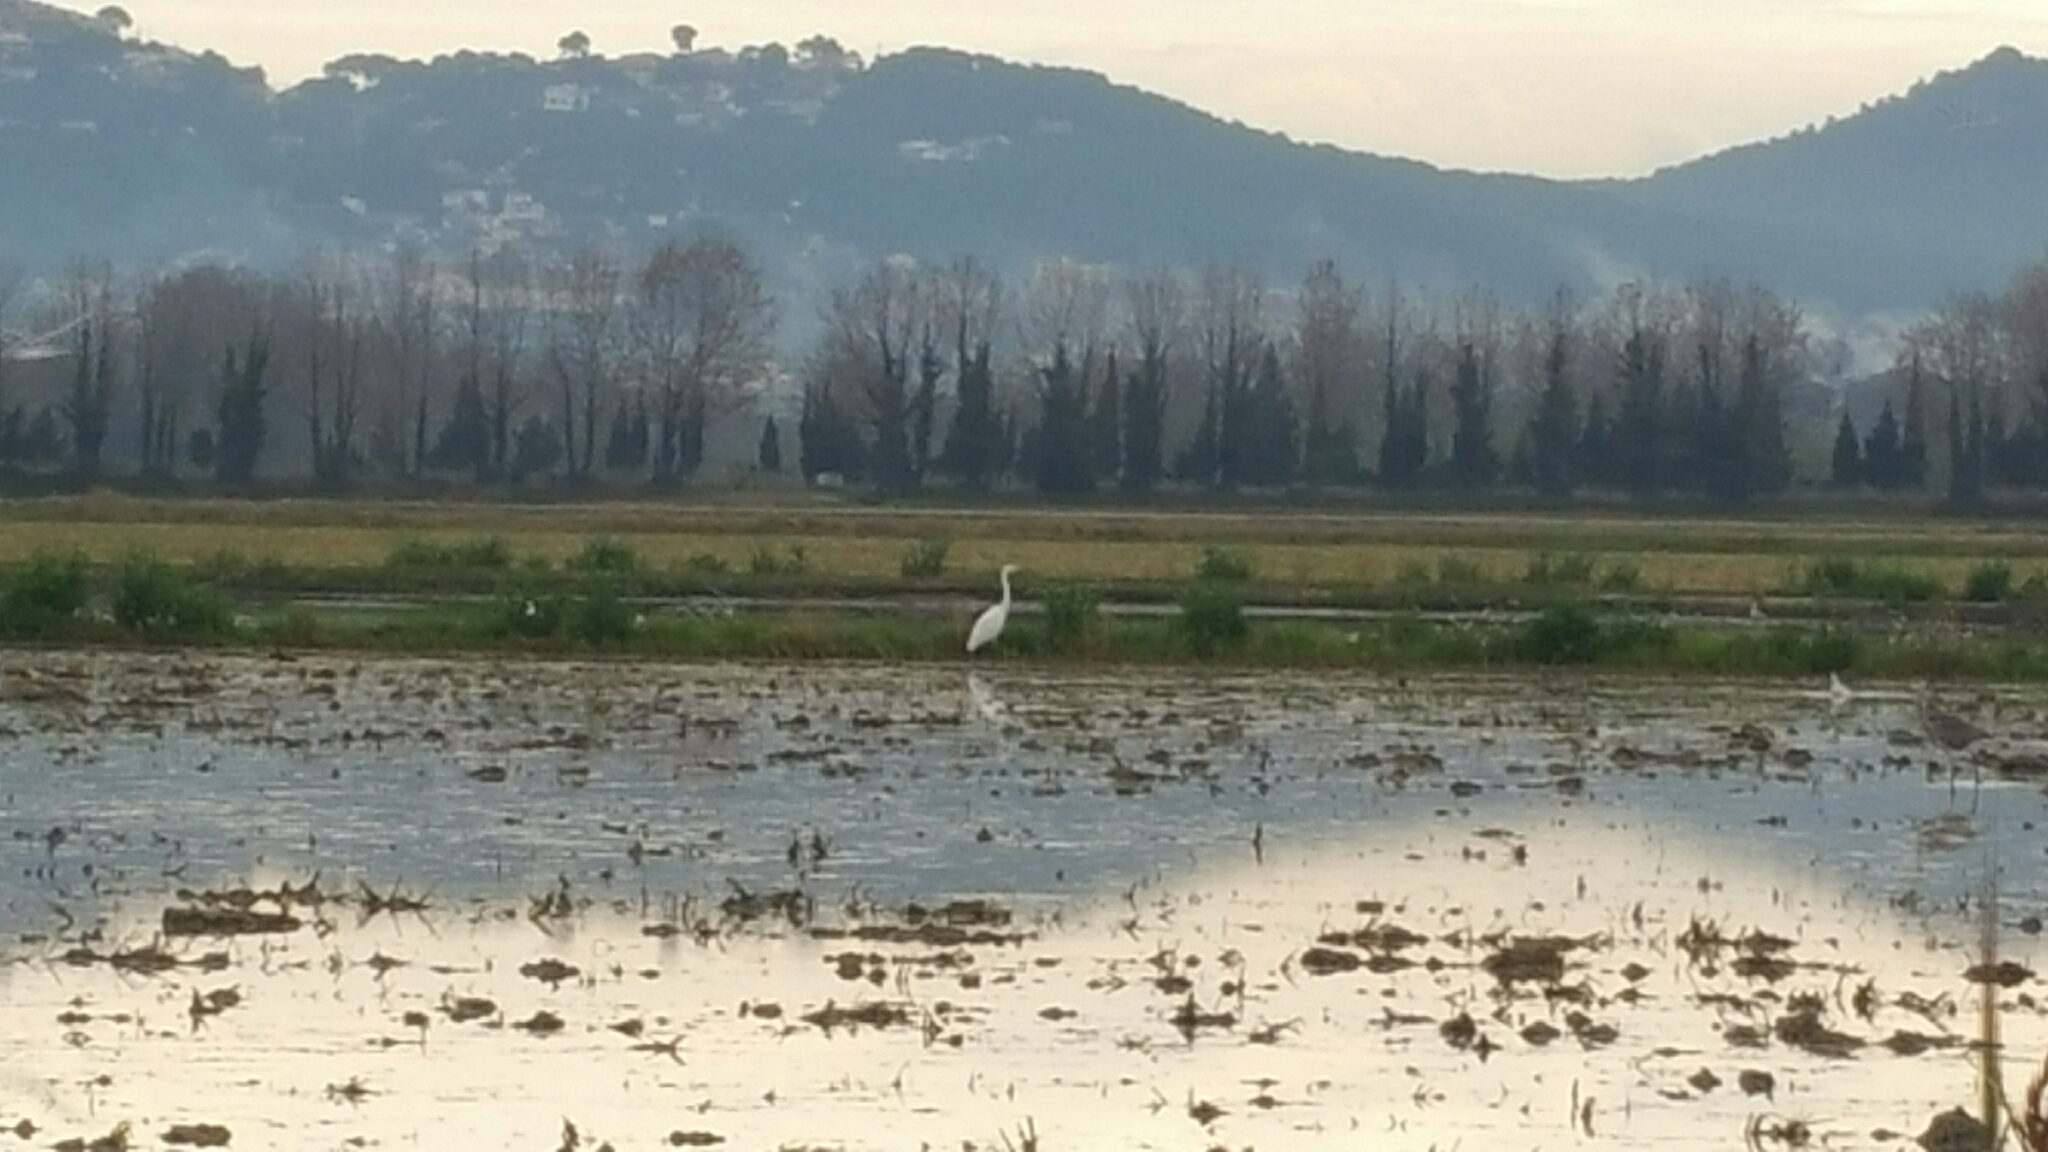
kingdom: Animalia
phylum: Chordata
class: Aves
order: Pelecaniformes
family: Ardeidae
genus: Ardea
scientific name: Ardea alba
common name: Great egret
